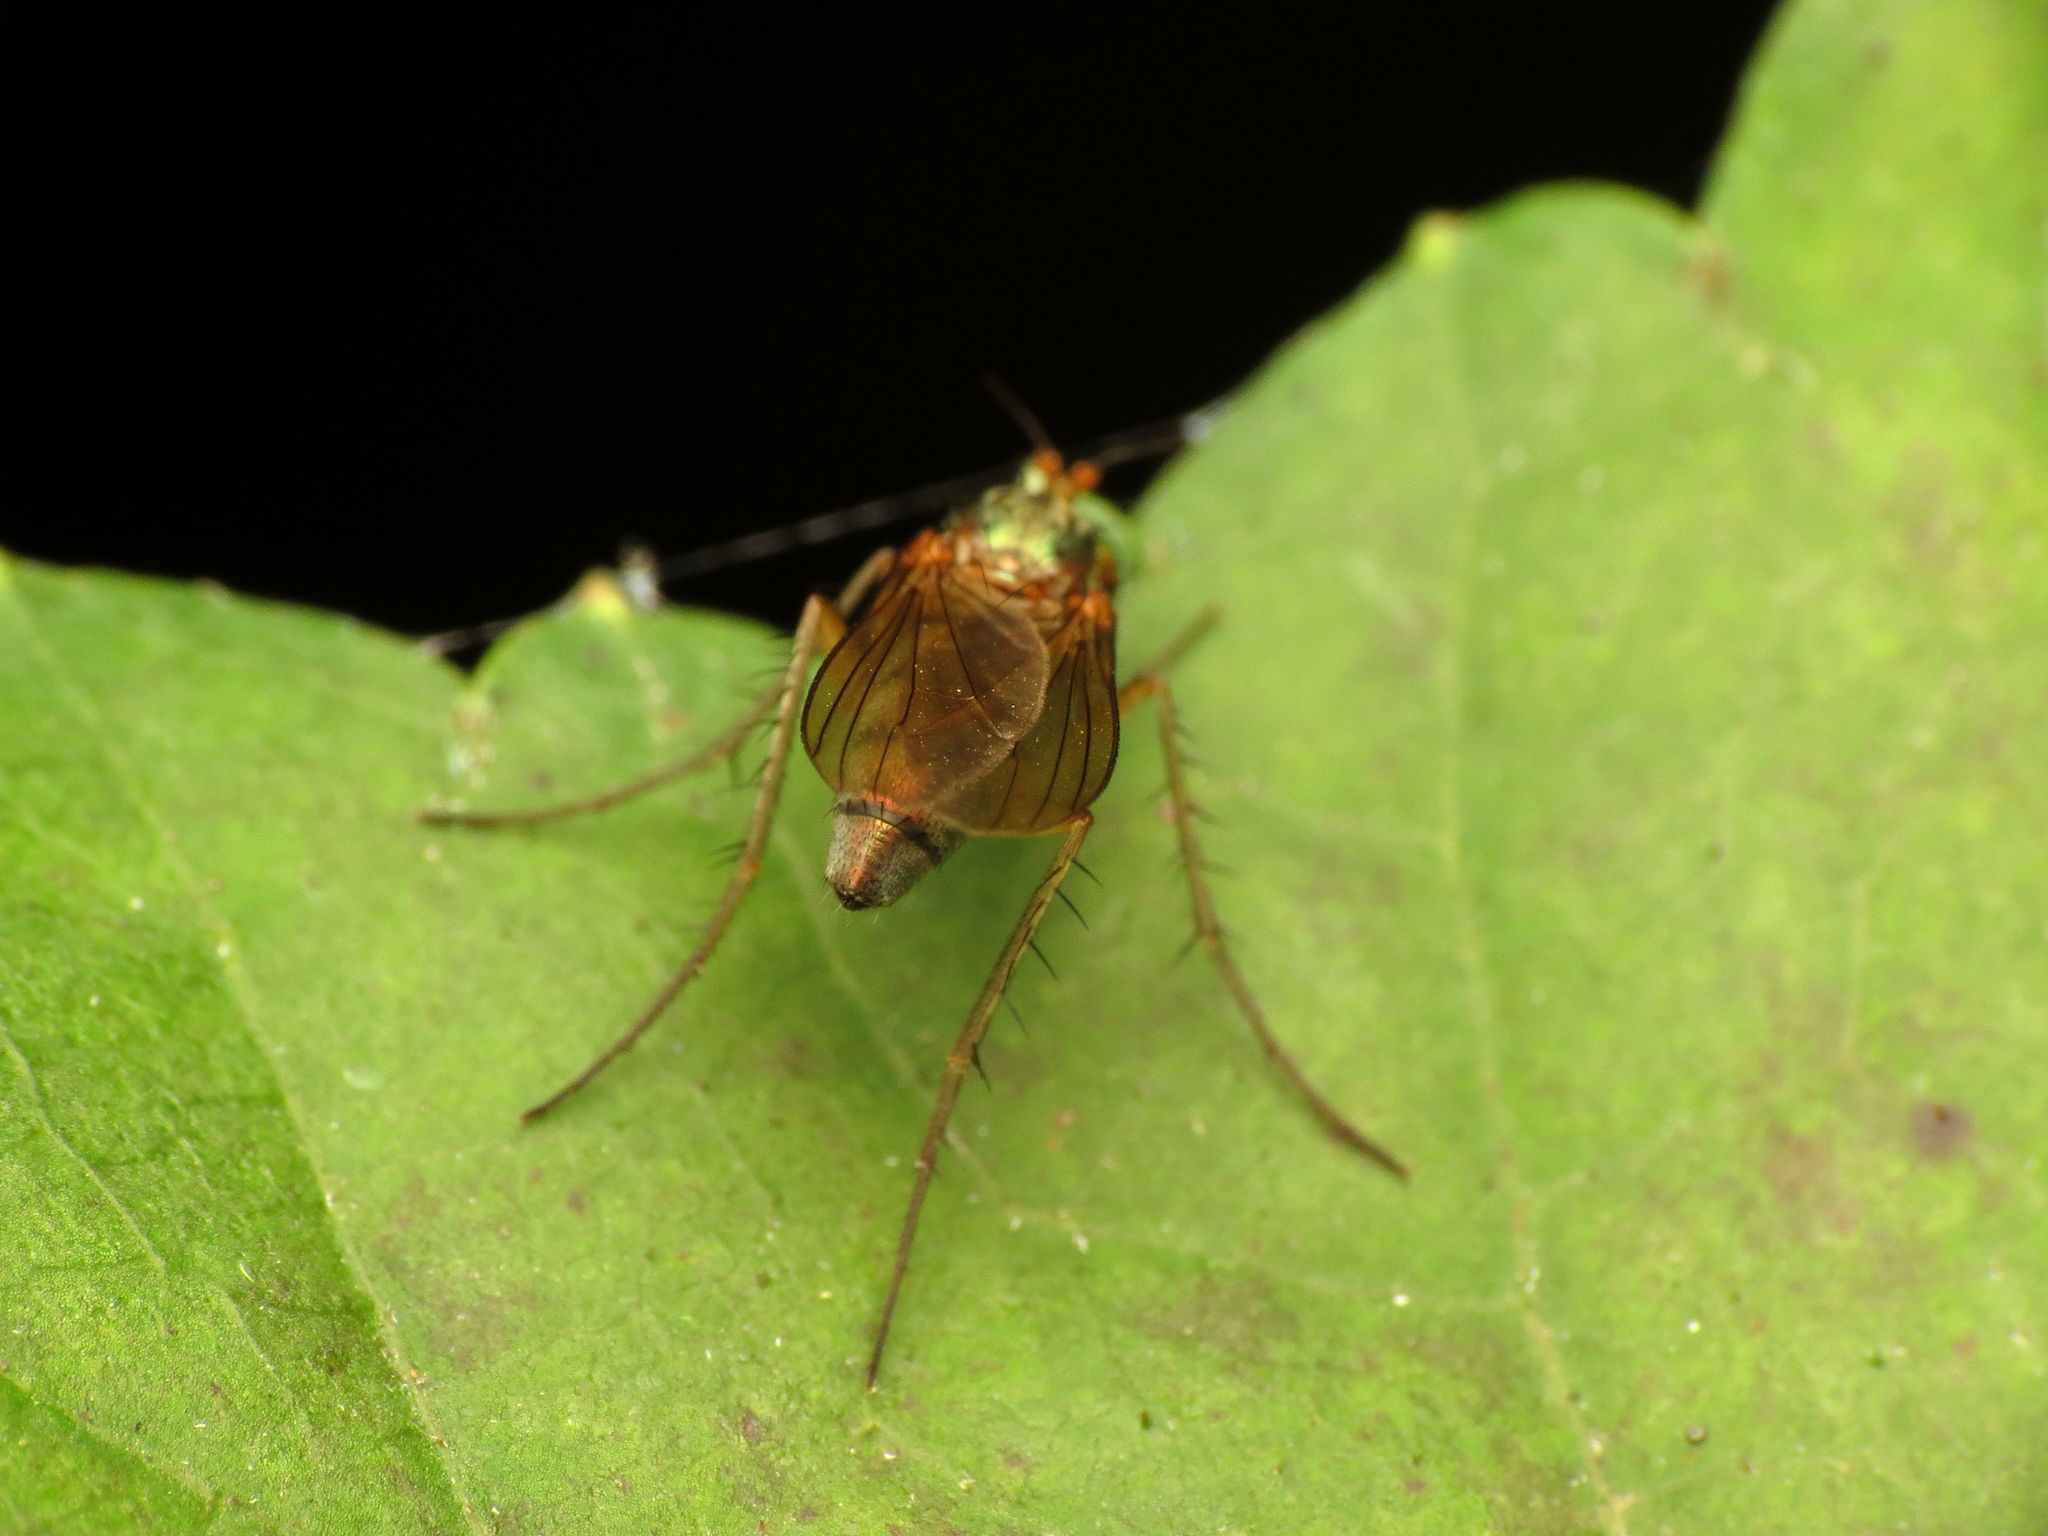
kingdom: Animalia
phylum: Arthropoda
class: Insecta
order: Diptera
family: Dolichopodidae
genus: Dolichopus
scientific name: Dolichopus
